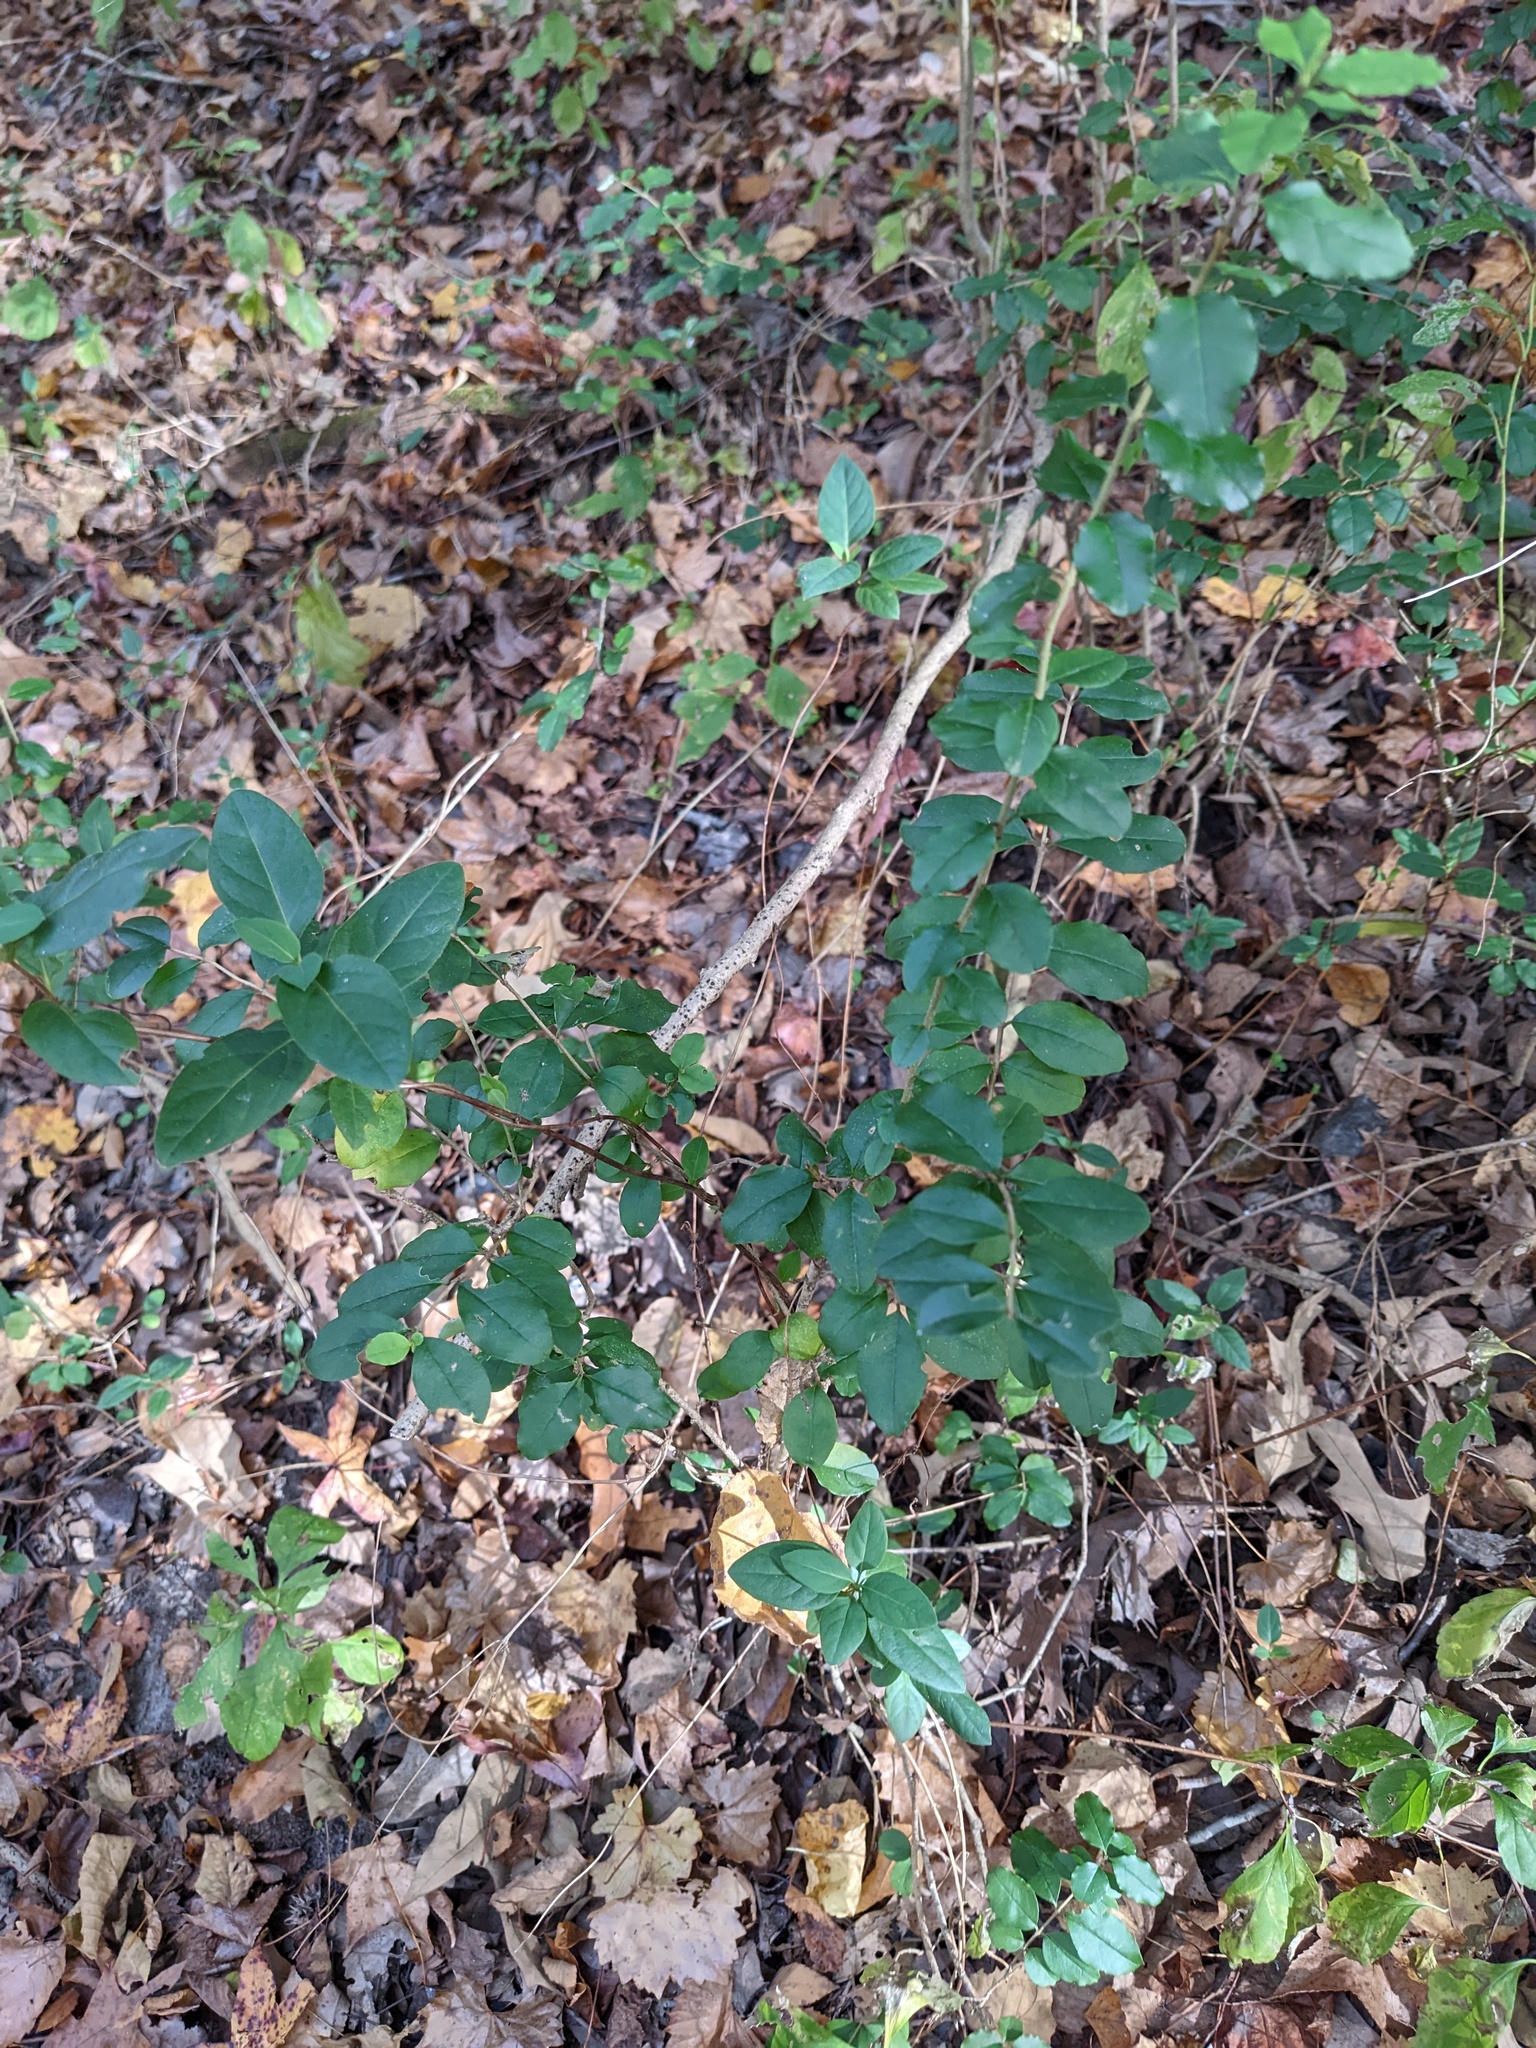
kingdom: Plantae
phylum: Tracheophyta
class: Magnoliopsida
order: Lamiales
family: Oleaceae
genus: Ligustrum
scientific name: Ligustrum sinense
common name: Chinese privet
